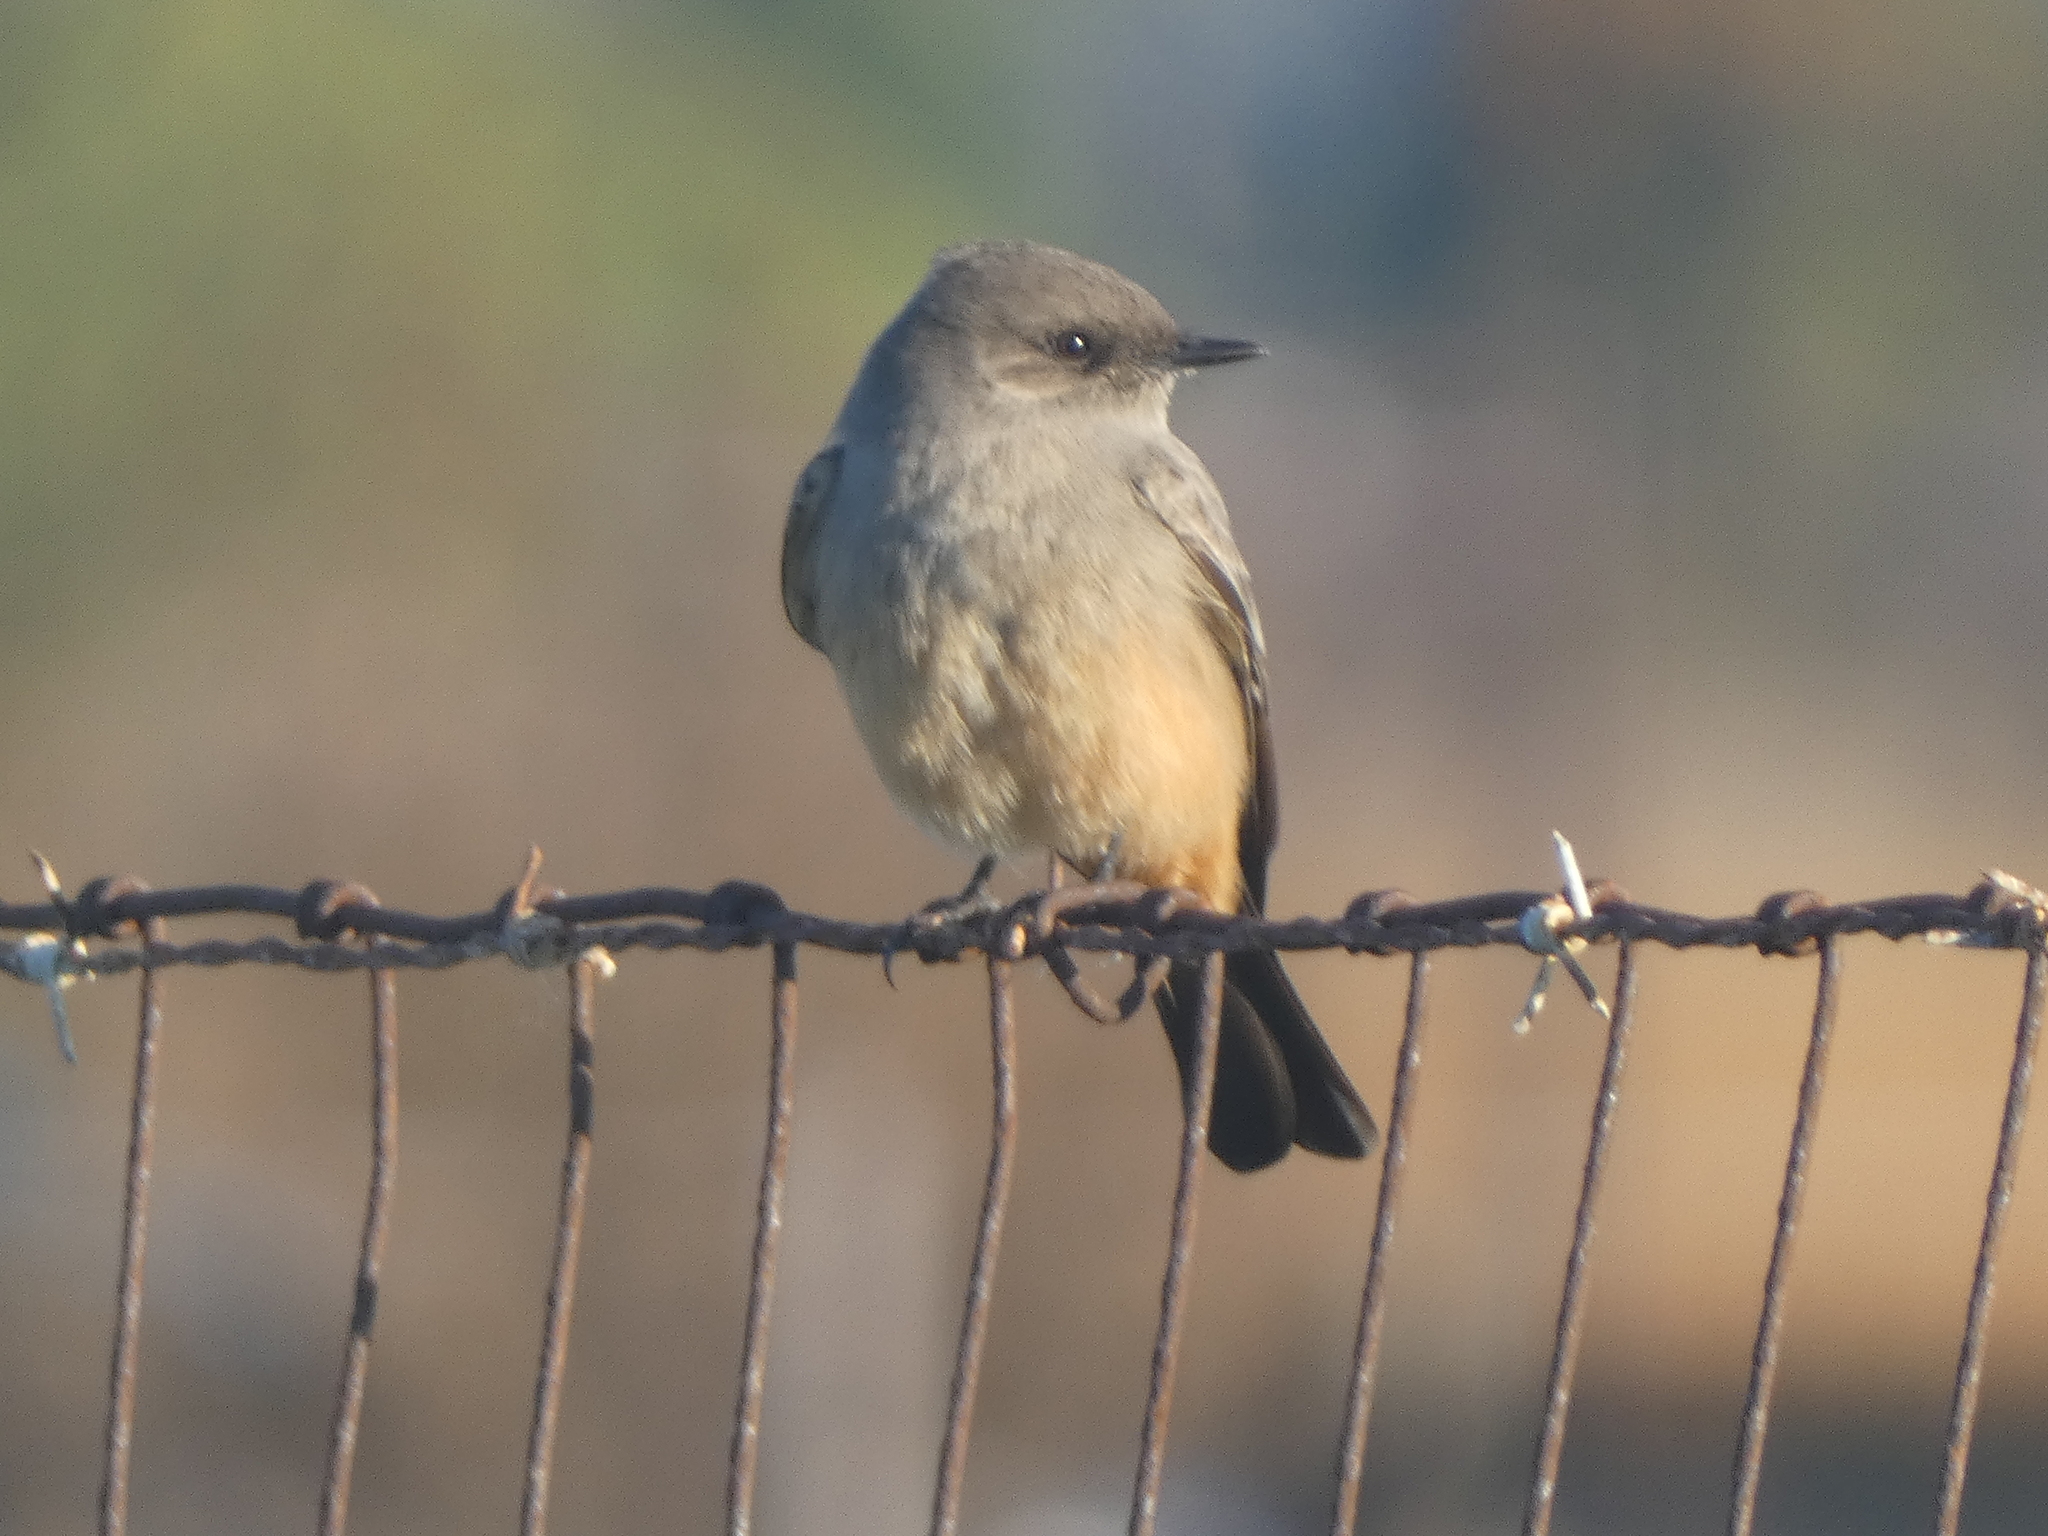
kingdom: Animalia
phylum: Chordata
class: Aves
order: Passeriformes
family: Tyrannidae
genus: Sayornis
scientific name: Sayornis saya
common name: Say's phoebe
